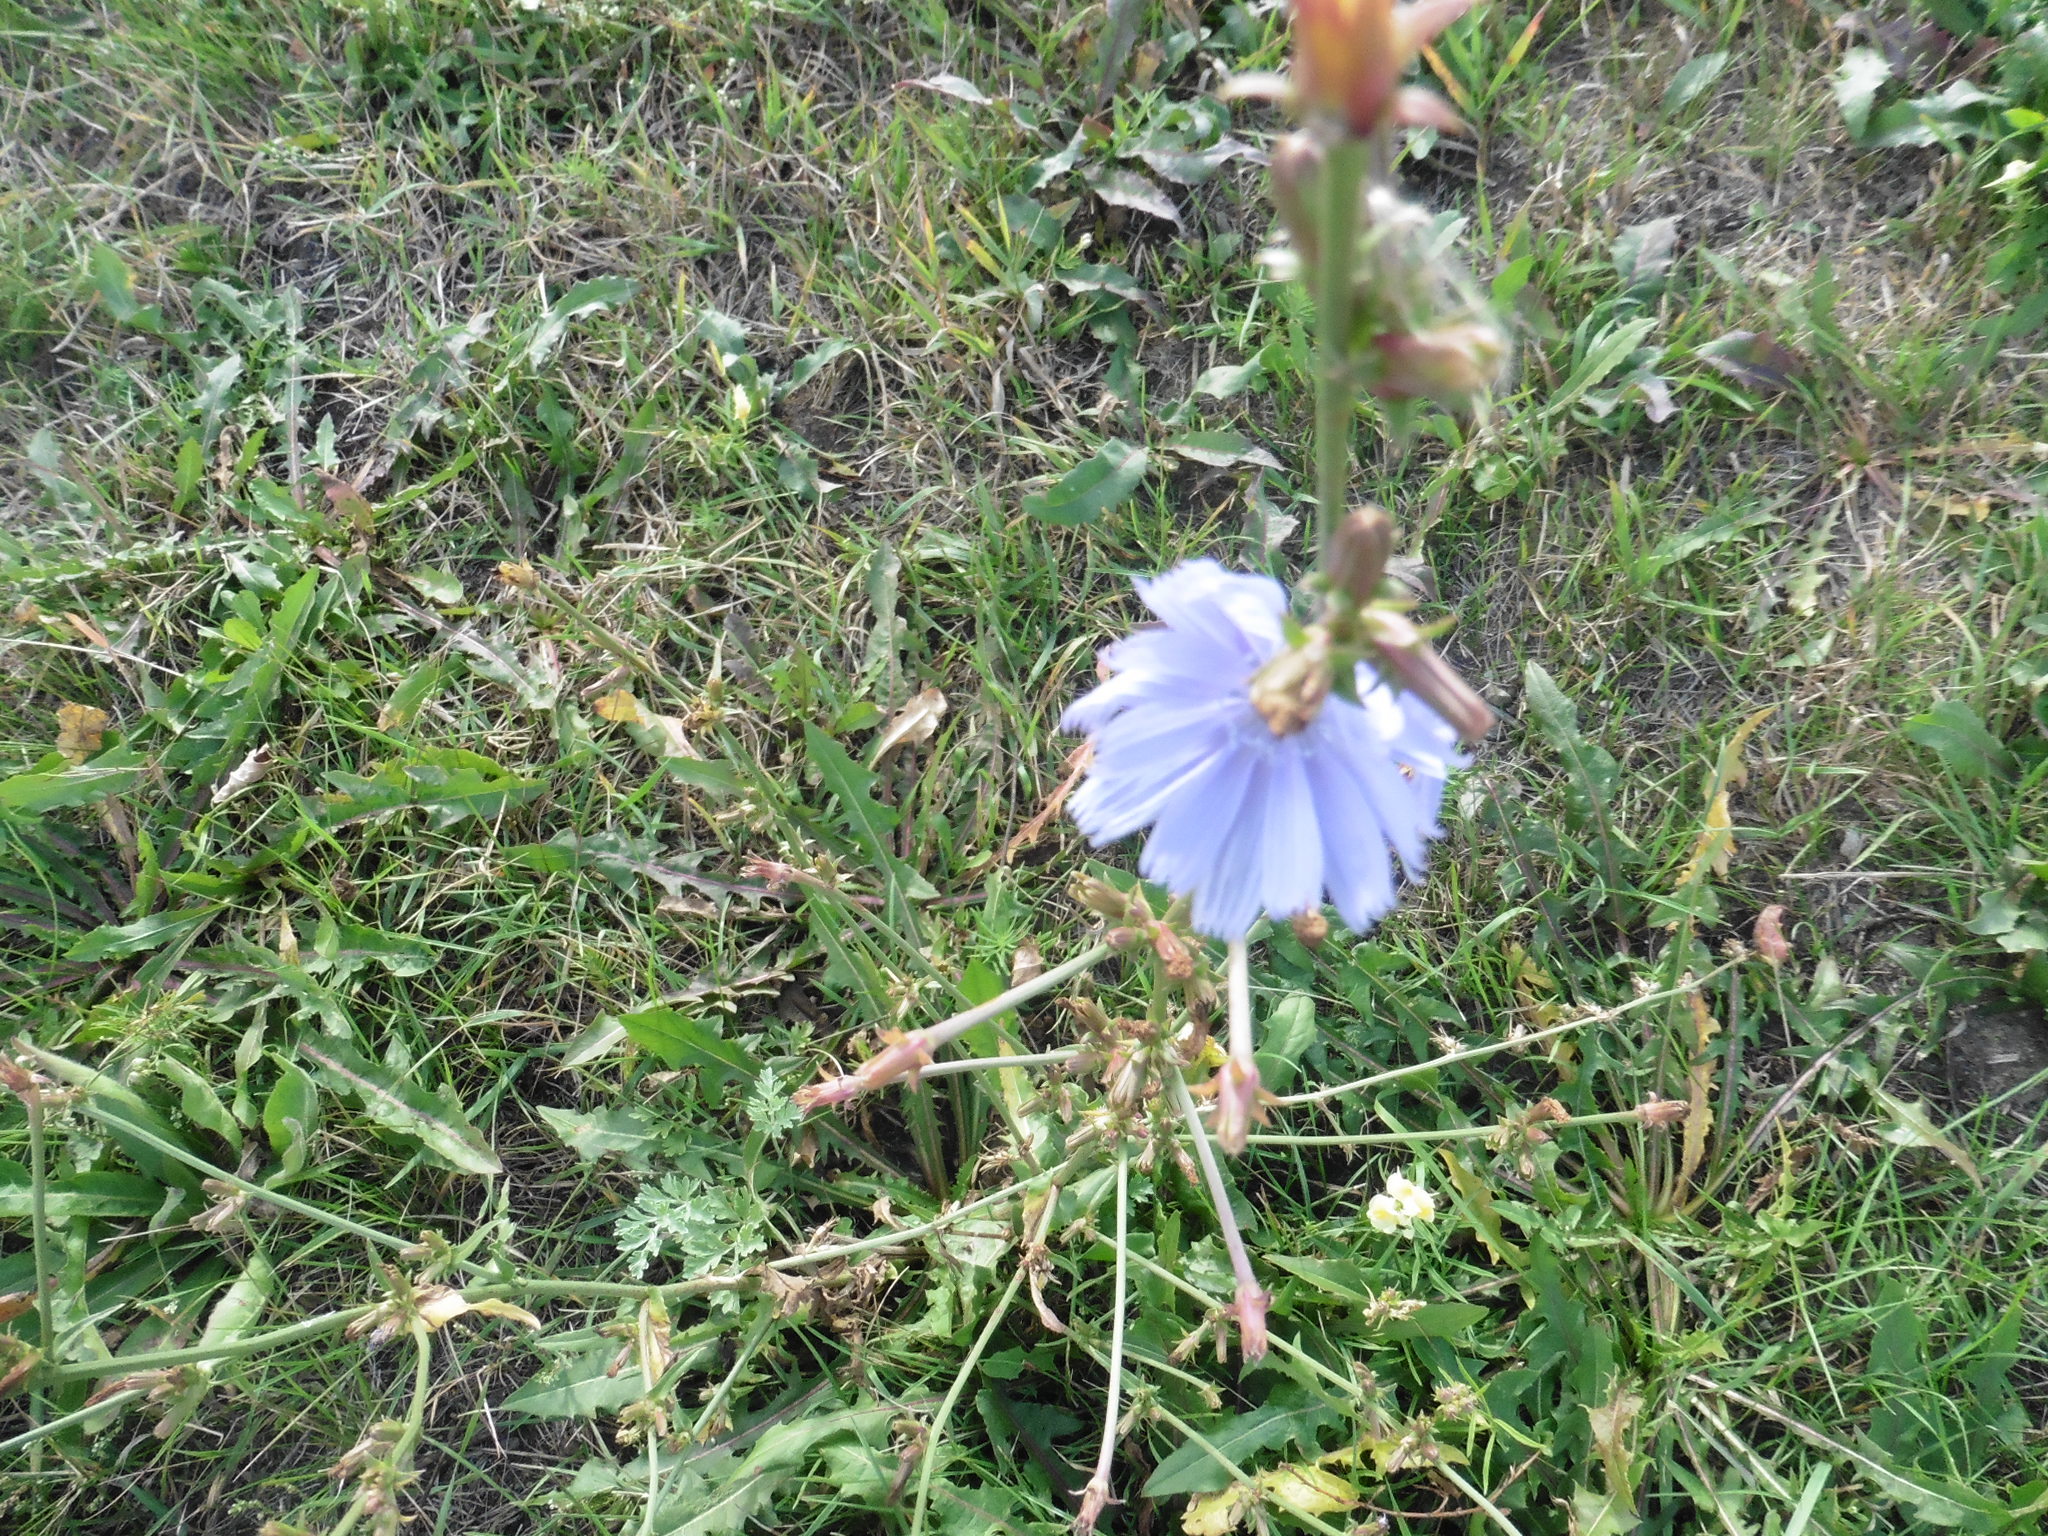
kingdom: Plantae
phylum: Tracheophyta
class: Magnoliopsida
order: Asterales
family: Asteraceae
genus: Cichorium
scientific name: Cichorium intybus
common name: Chicory
